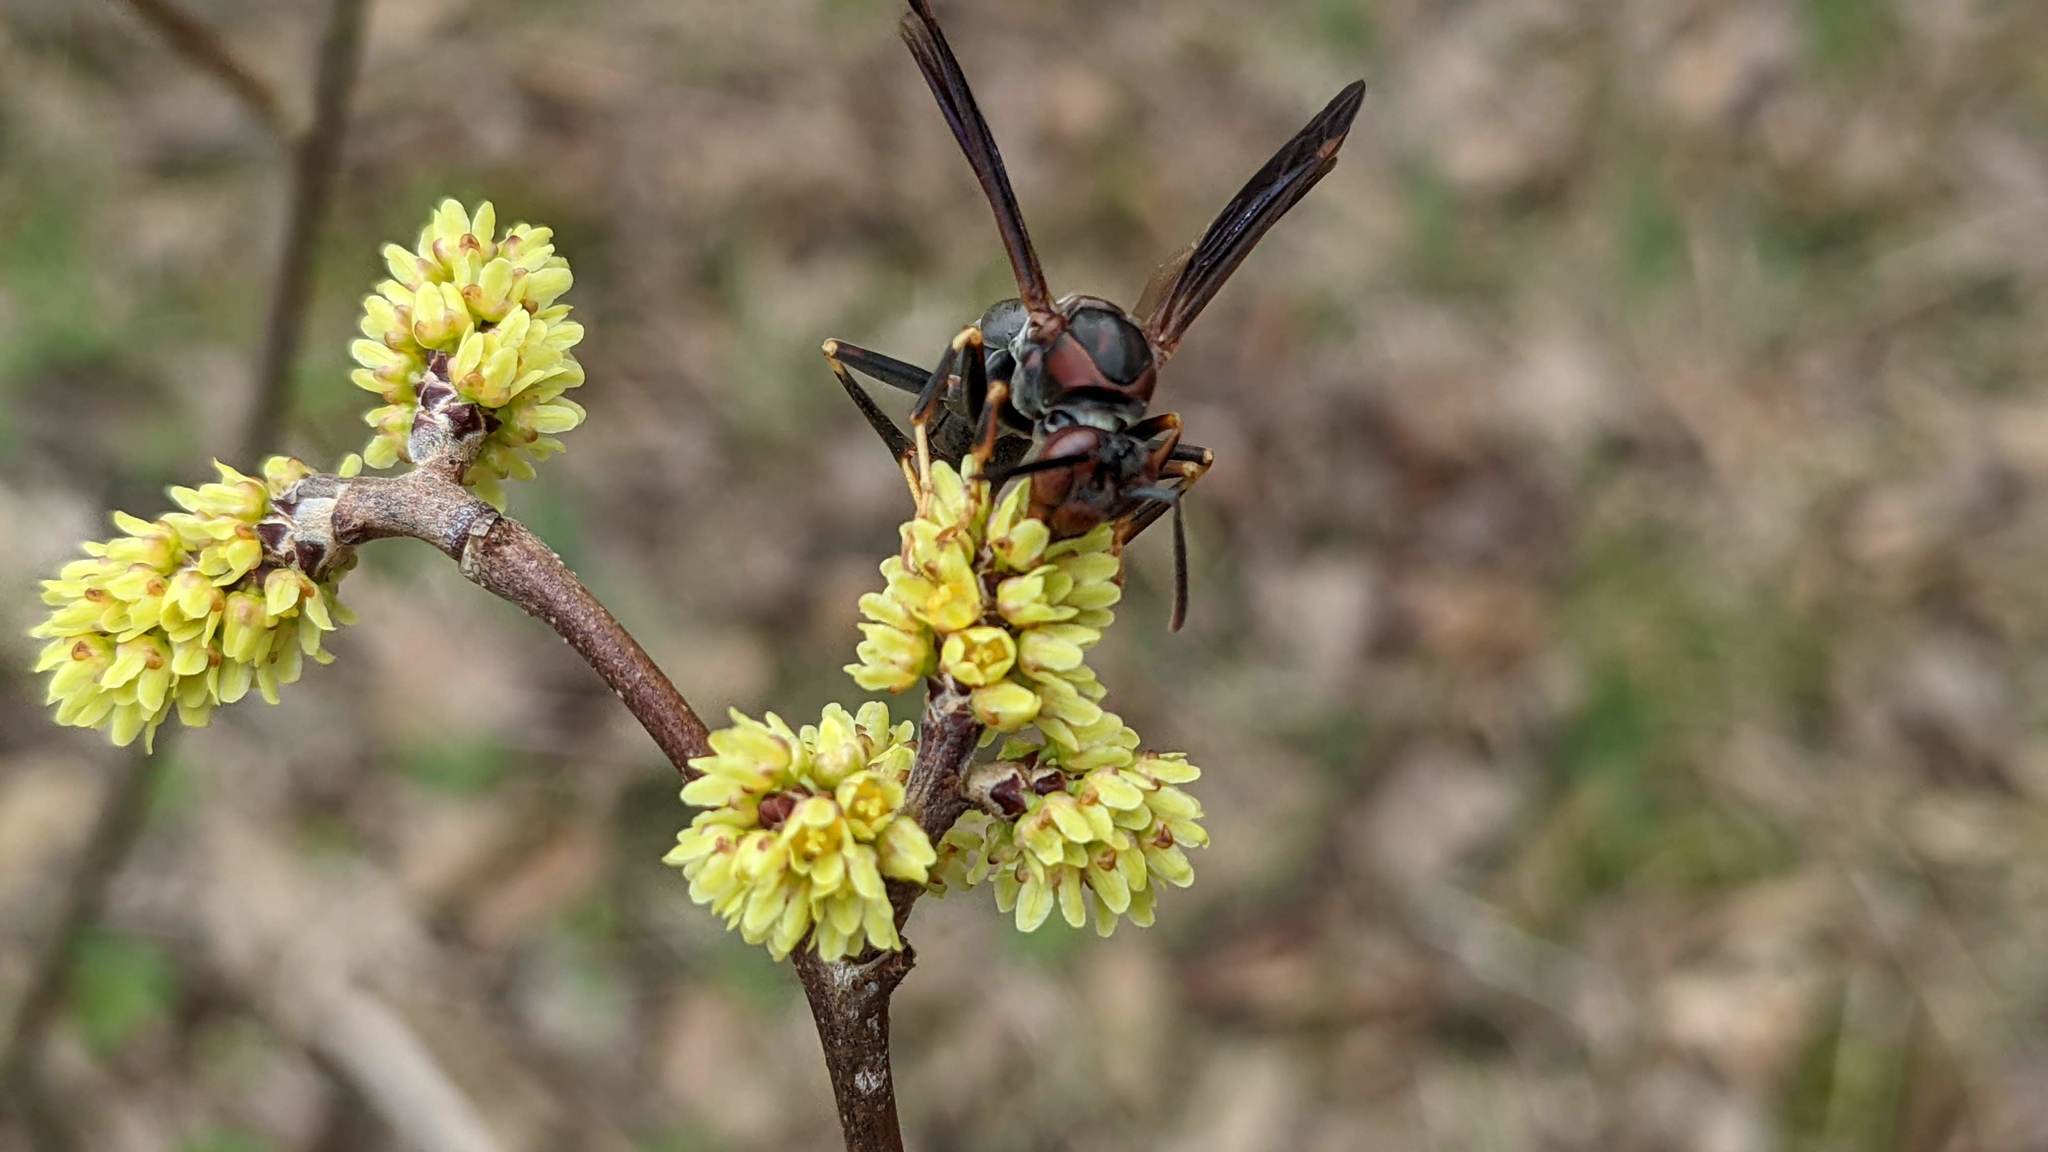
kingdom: Animalia
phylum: Arthropoda
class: Insecta
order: Hymenoptera
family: Eumenidae
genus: Polistes
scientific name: Polistes metricus
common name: Metric paper wasp
